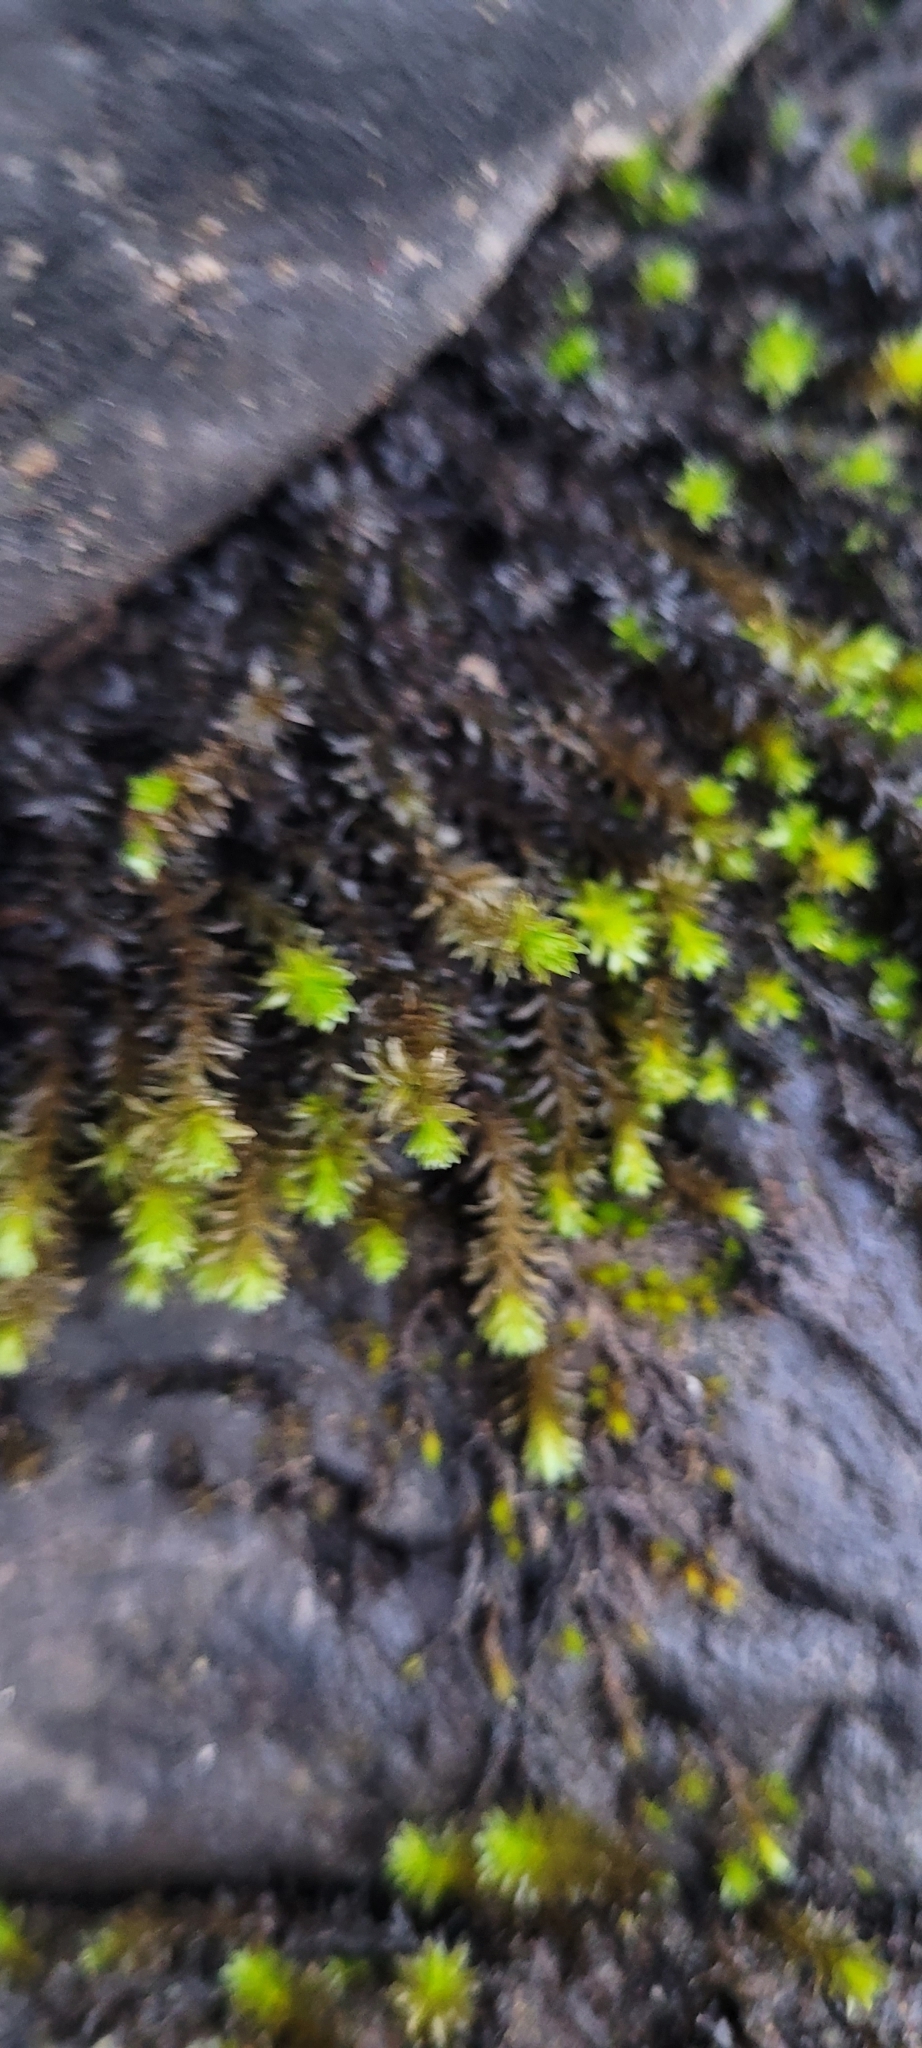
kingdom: Plantae
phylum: Bryophyta
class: Bryopsida
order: Scouleriales
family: Scouleriaceae
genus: Scouleria
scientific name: Scouleria aquatica
